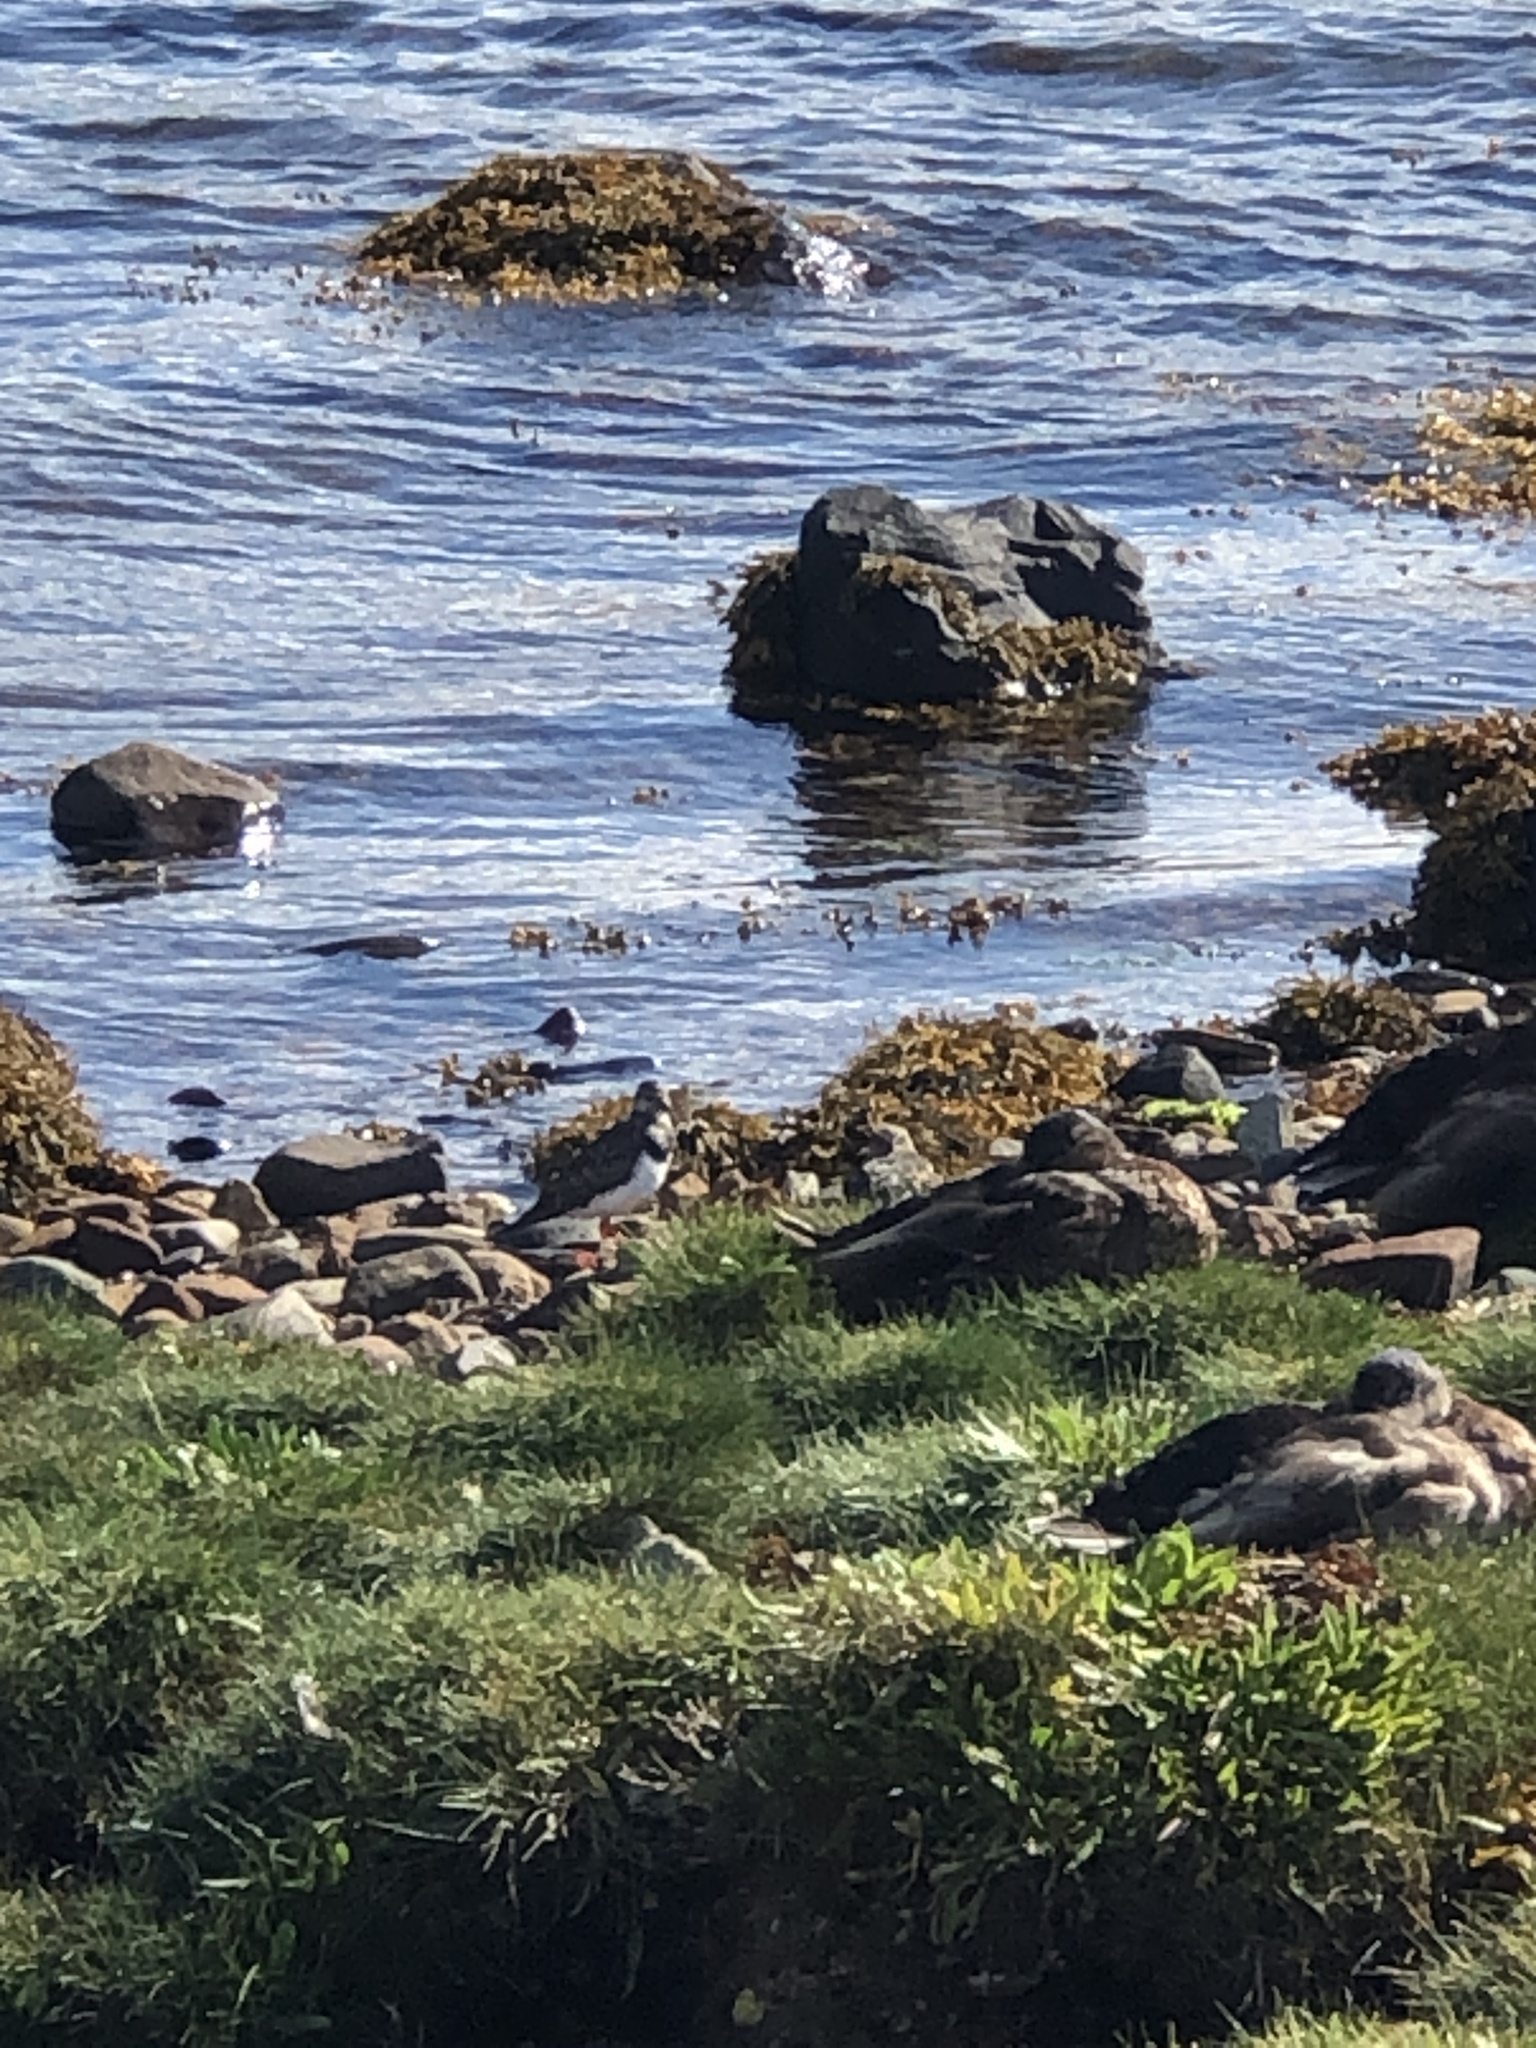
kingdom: Animalia
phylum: Chordata
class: Aves
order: Charadriiformes
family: Scolopacidae
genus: Arenaria
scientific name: Arenaria interpres
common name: Ruddy turnstone
